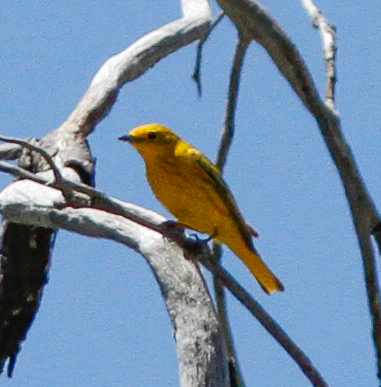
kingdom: Animalia
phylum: Chordata
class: Aves
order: Passeriformes
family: Parulidae
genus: Setophaga
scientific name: Setophaga petechia
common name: Yellow warbler
